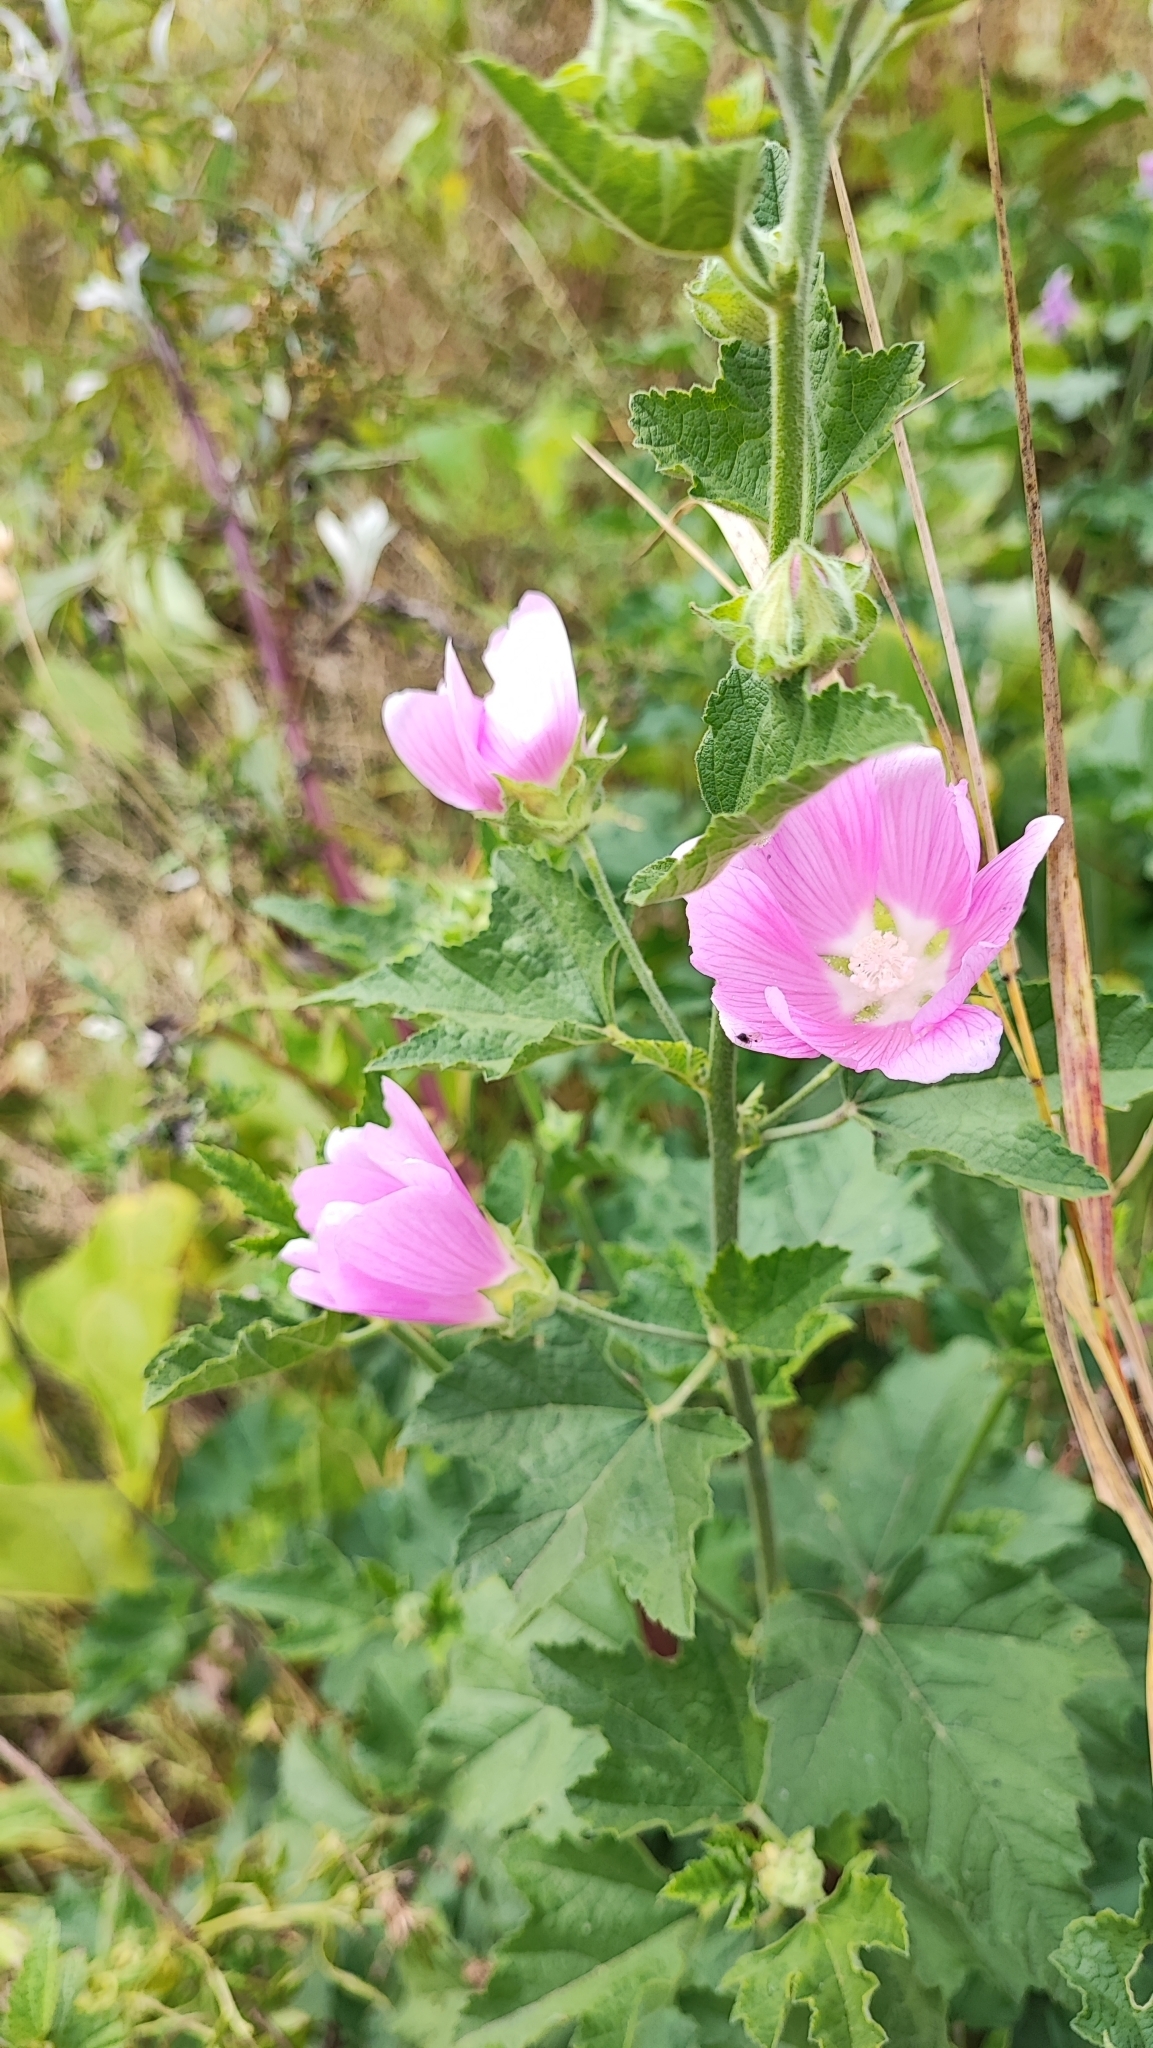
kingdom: Plantae
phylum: Tracheophyta
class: Magnoliopsida
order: Malvales
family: Malvaceae
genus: Malva
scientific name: Malva thuringiaca
